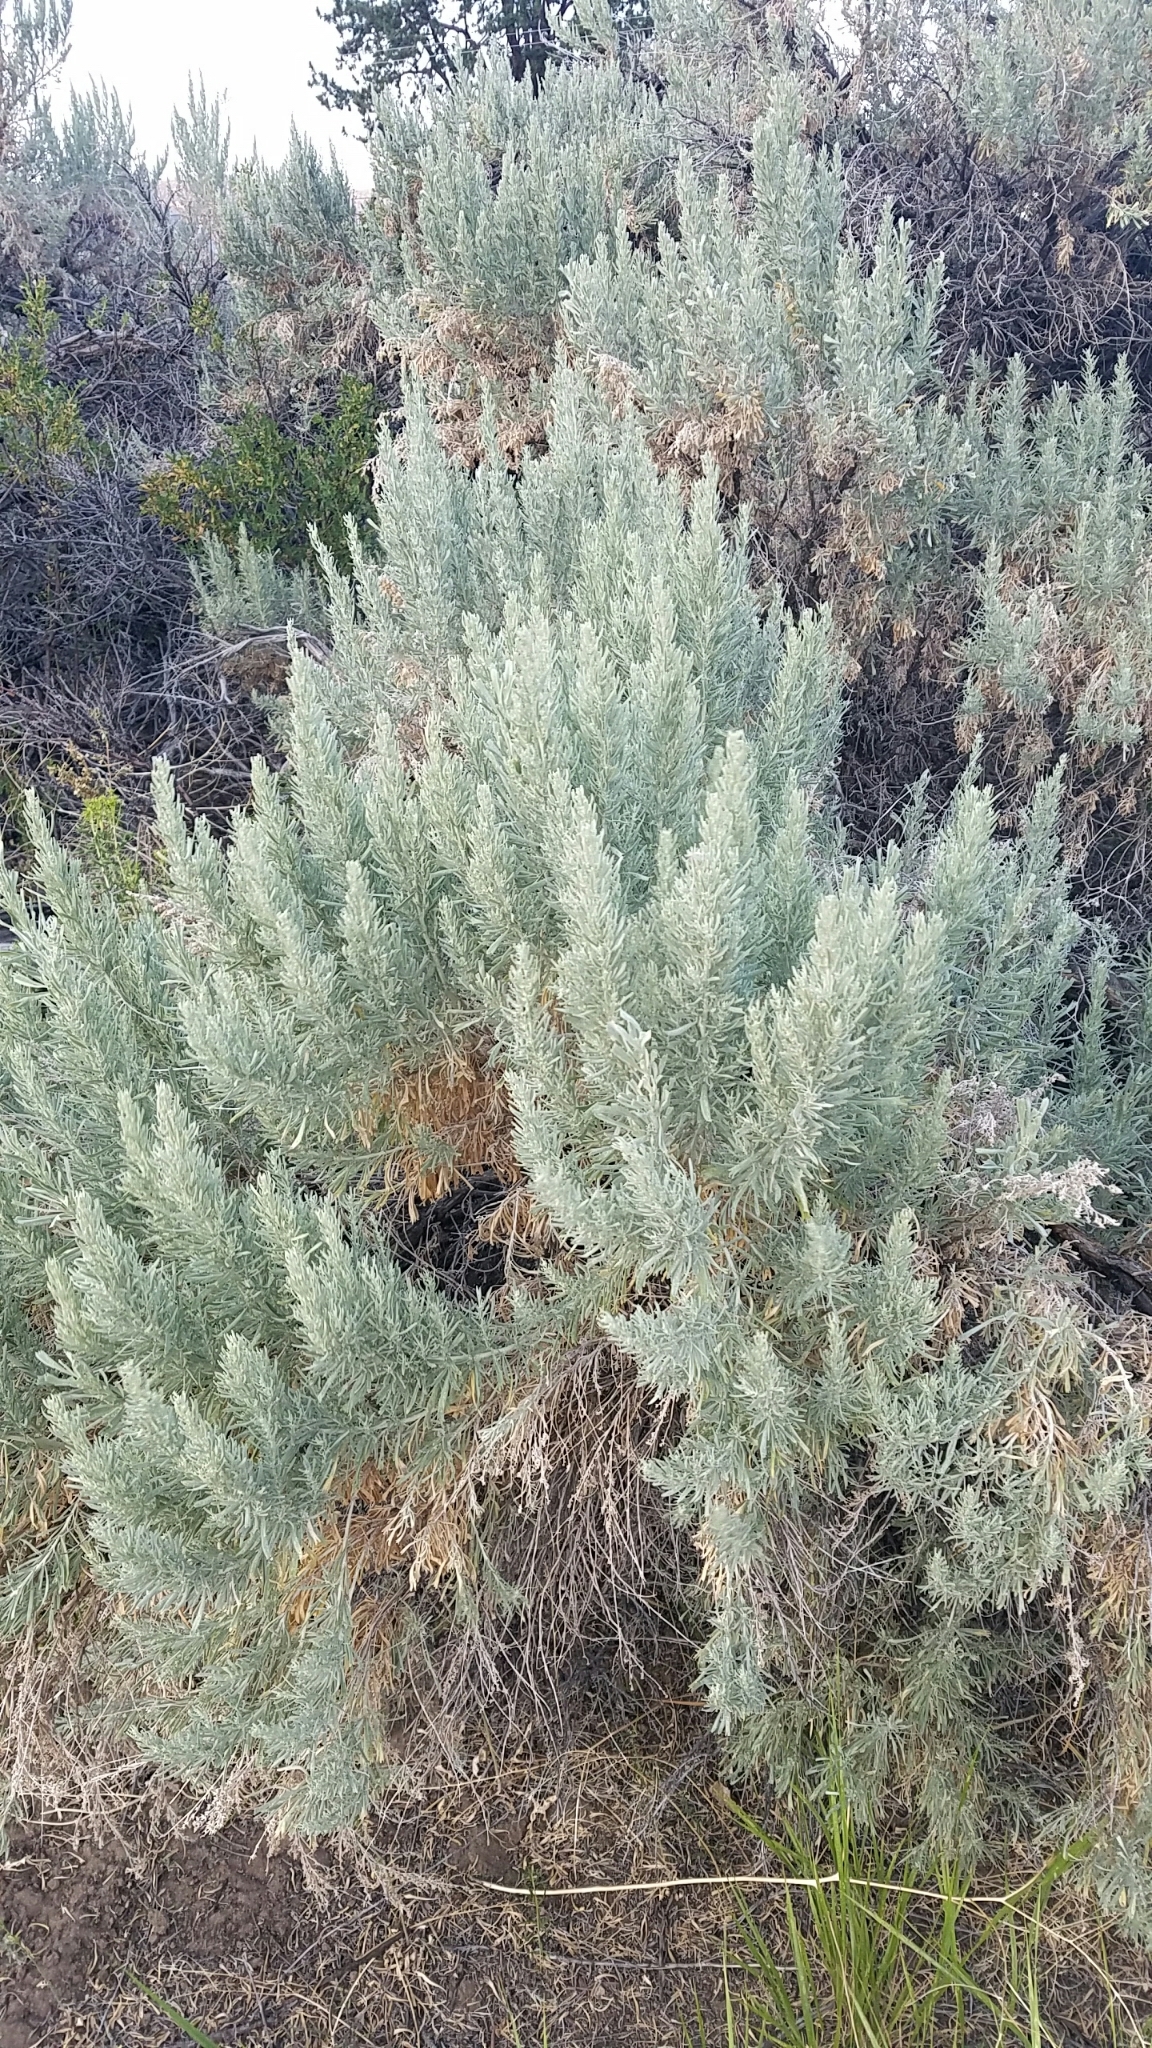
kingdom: Plantae
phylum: Tracheophyta
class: Magnoliopsida
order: Asterales
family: Asteraceae
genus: Artemisia
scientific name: Artemisia tridentata
